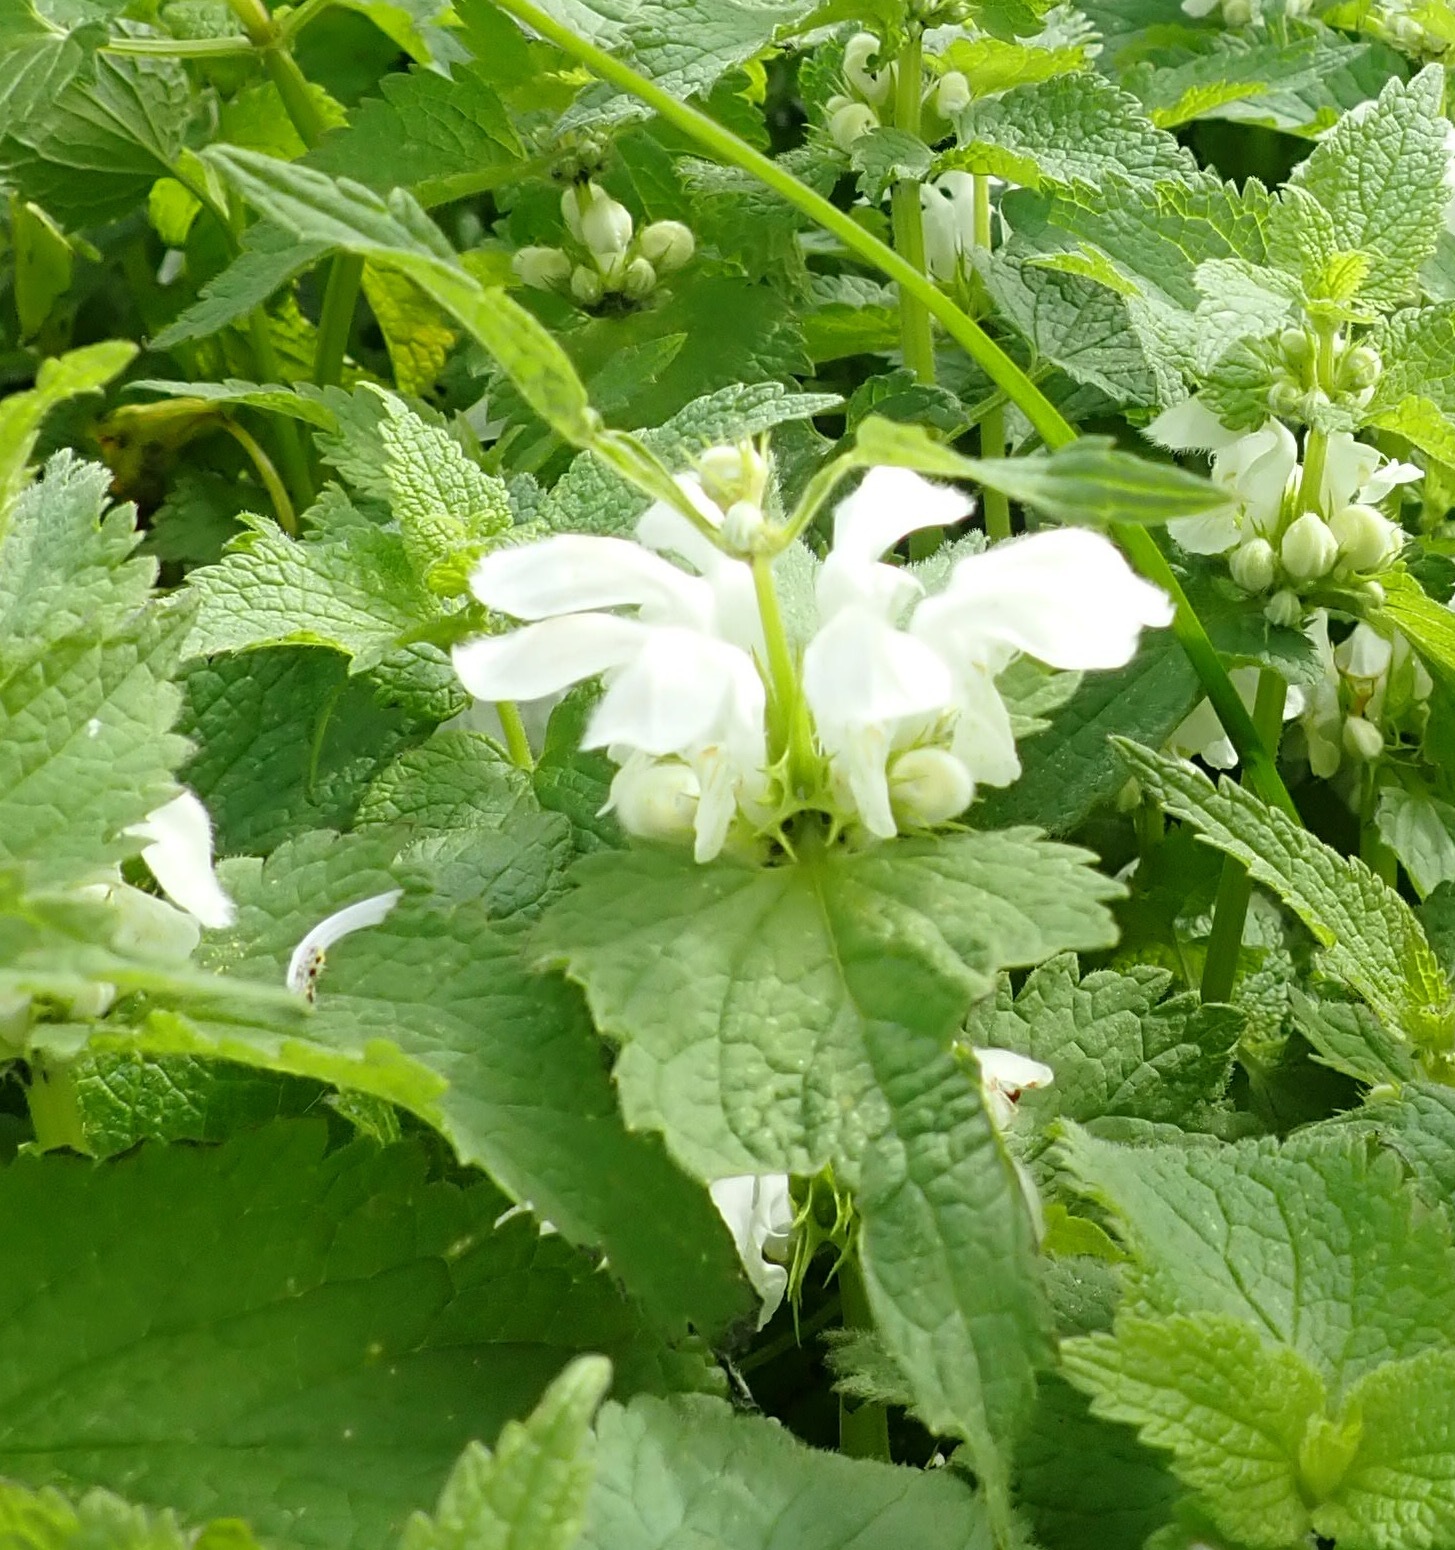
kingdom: Plantae
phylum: Tracheophyta
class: Magnoliopsida
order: Lamiales
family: Lamiaceae
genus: Lamium
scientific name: Lamium album
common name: White dead-nettle
